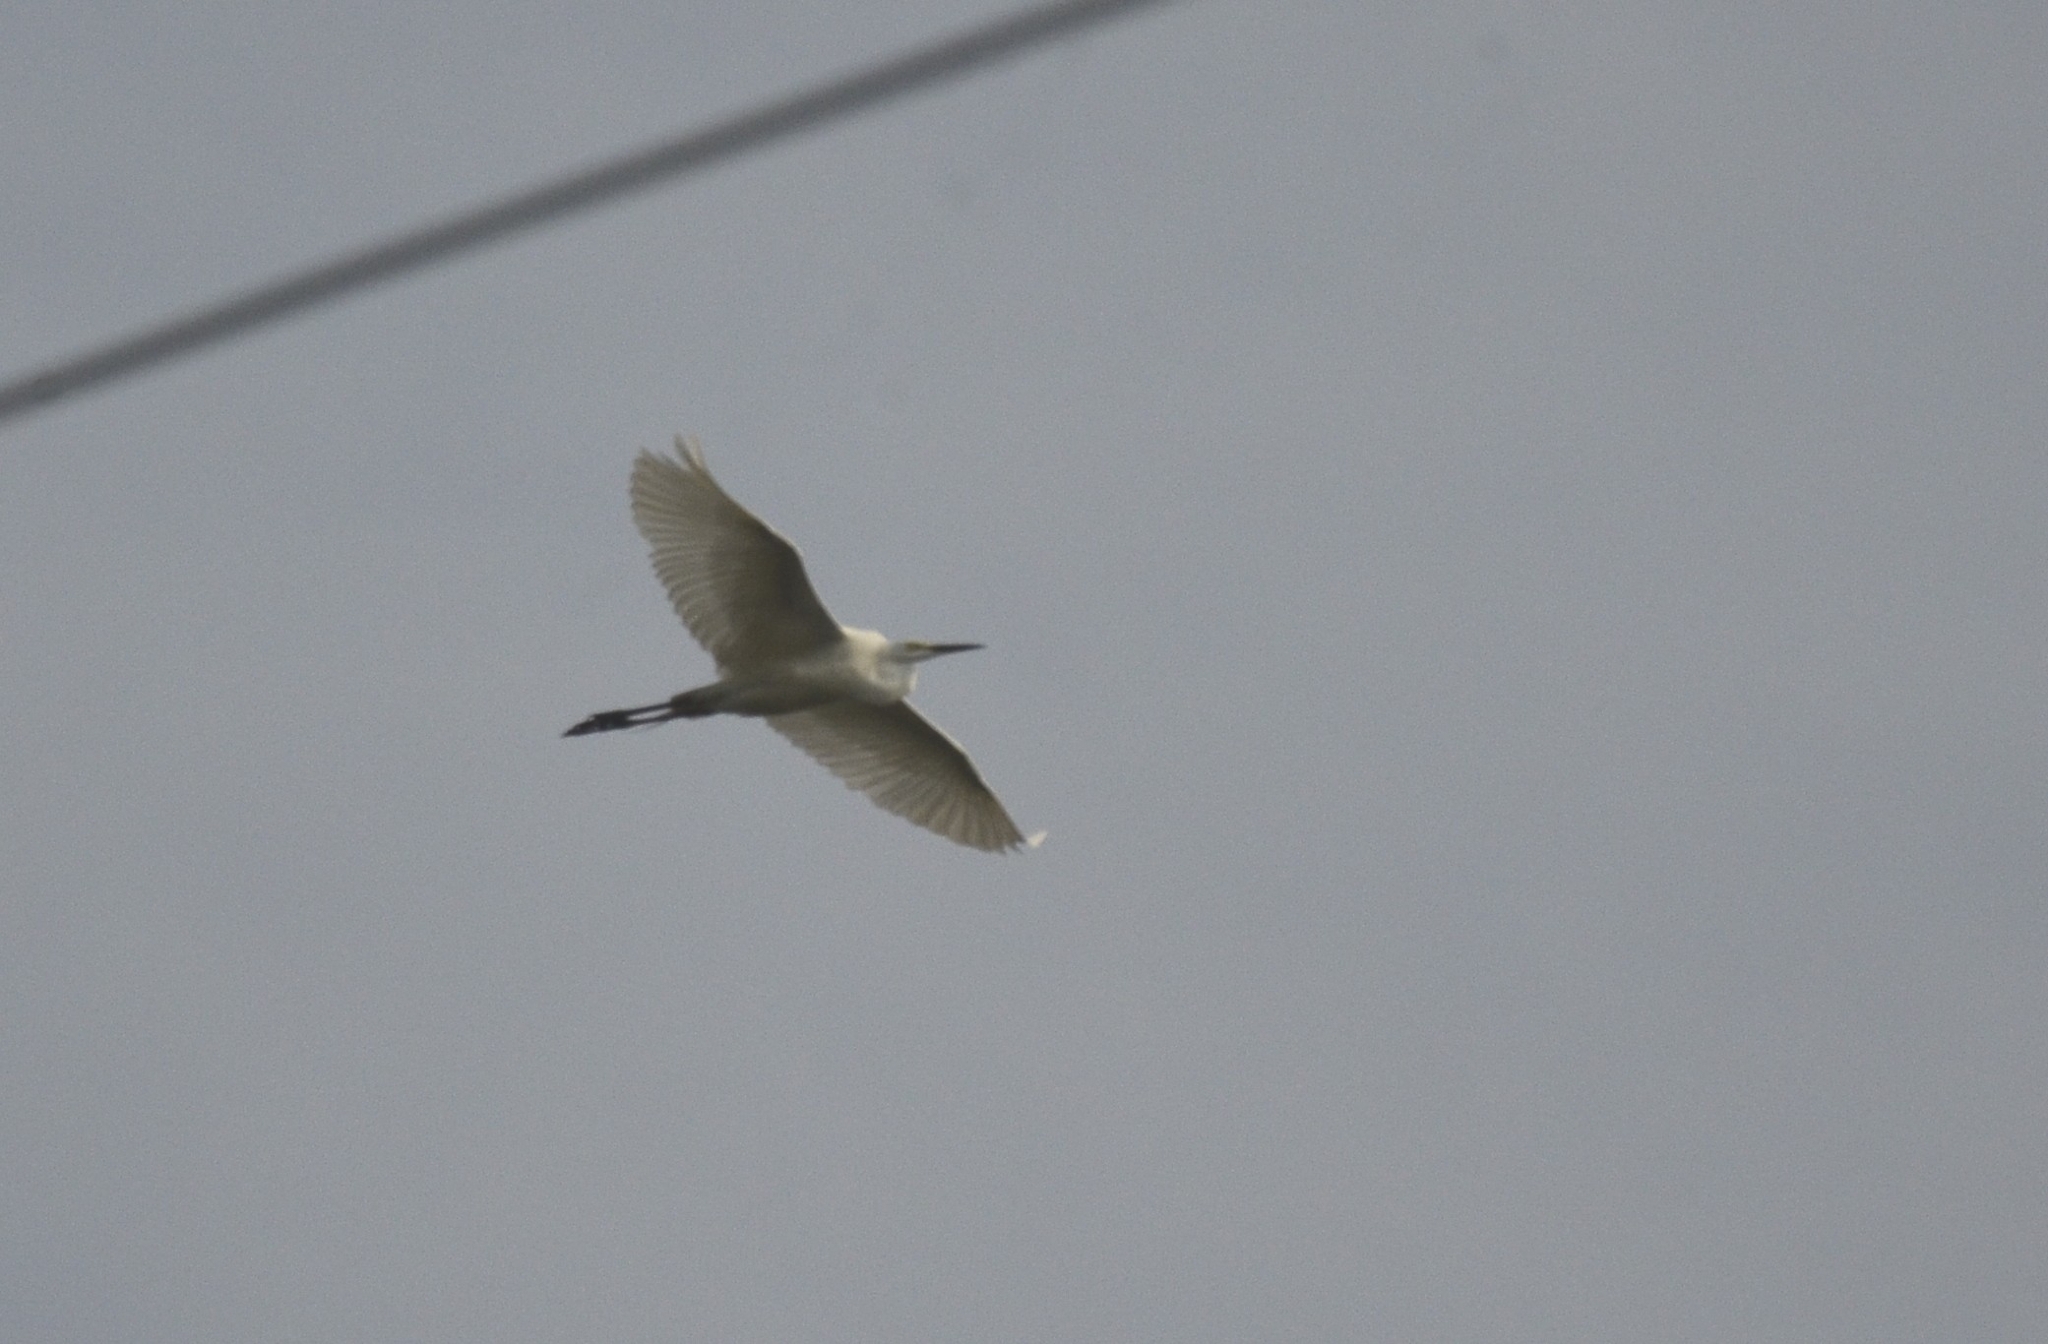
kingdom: Animalia
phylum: Chordata
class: Aves
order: Pelecaniformes
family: Ardeidae
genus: Egretta
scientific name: Egretta garzetta
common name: Little egret
